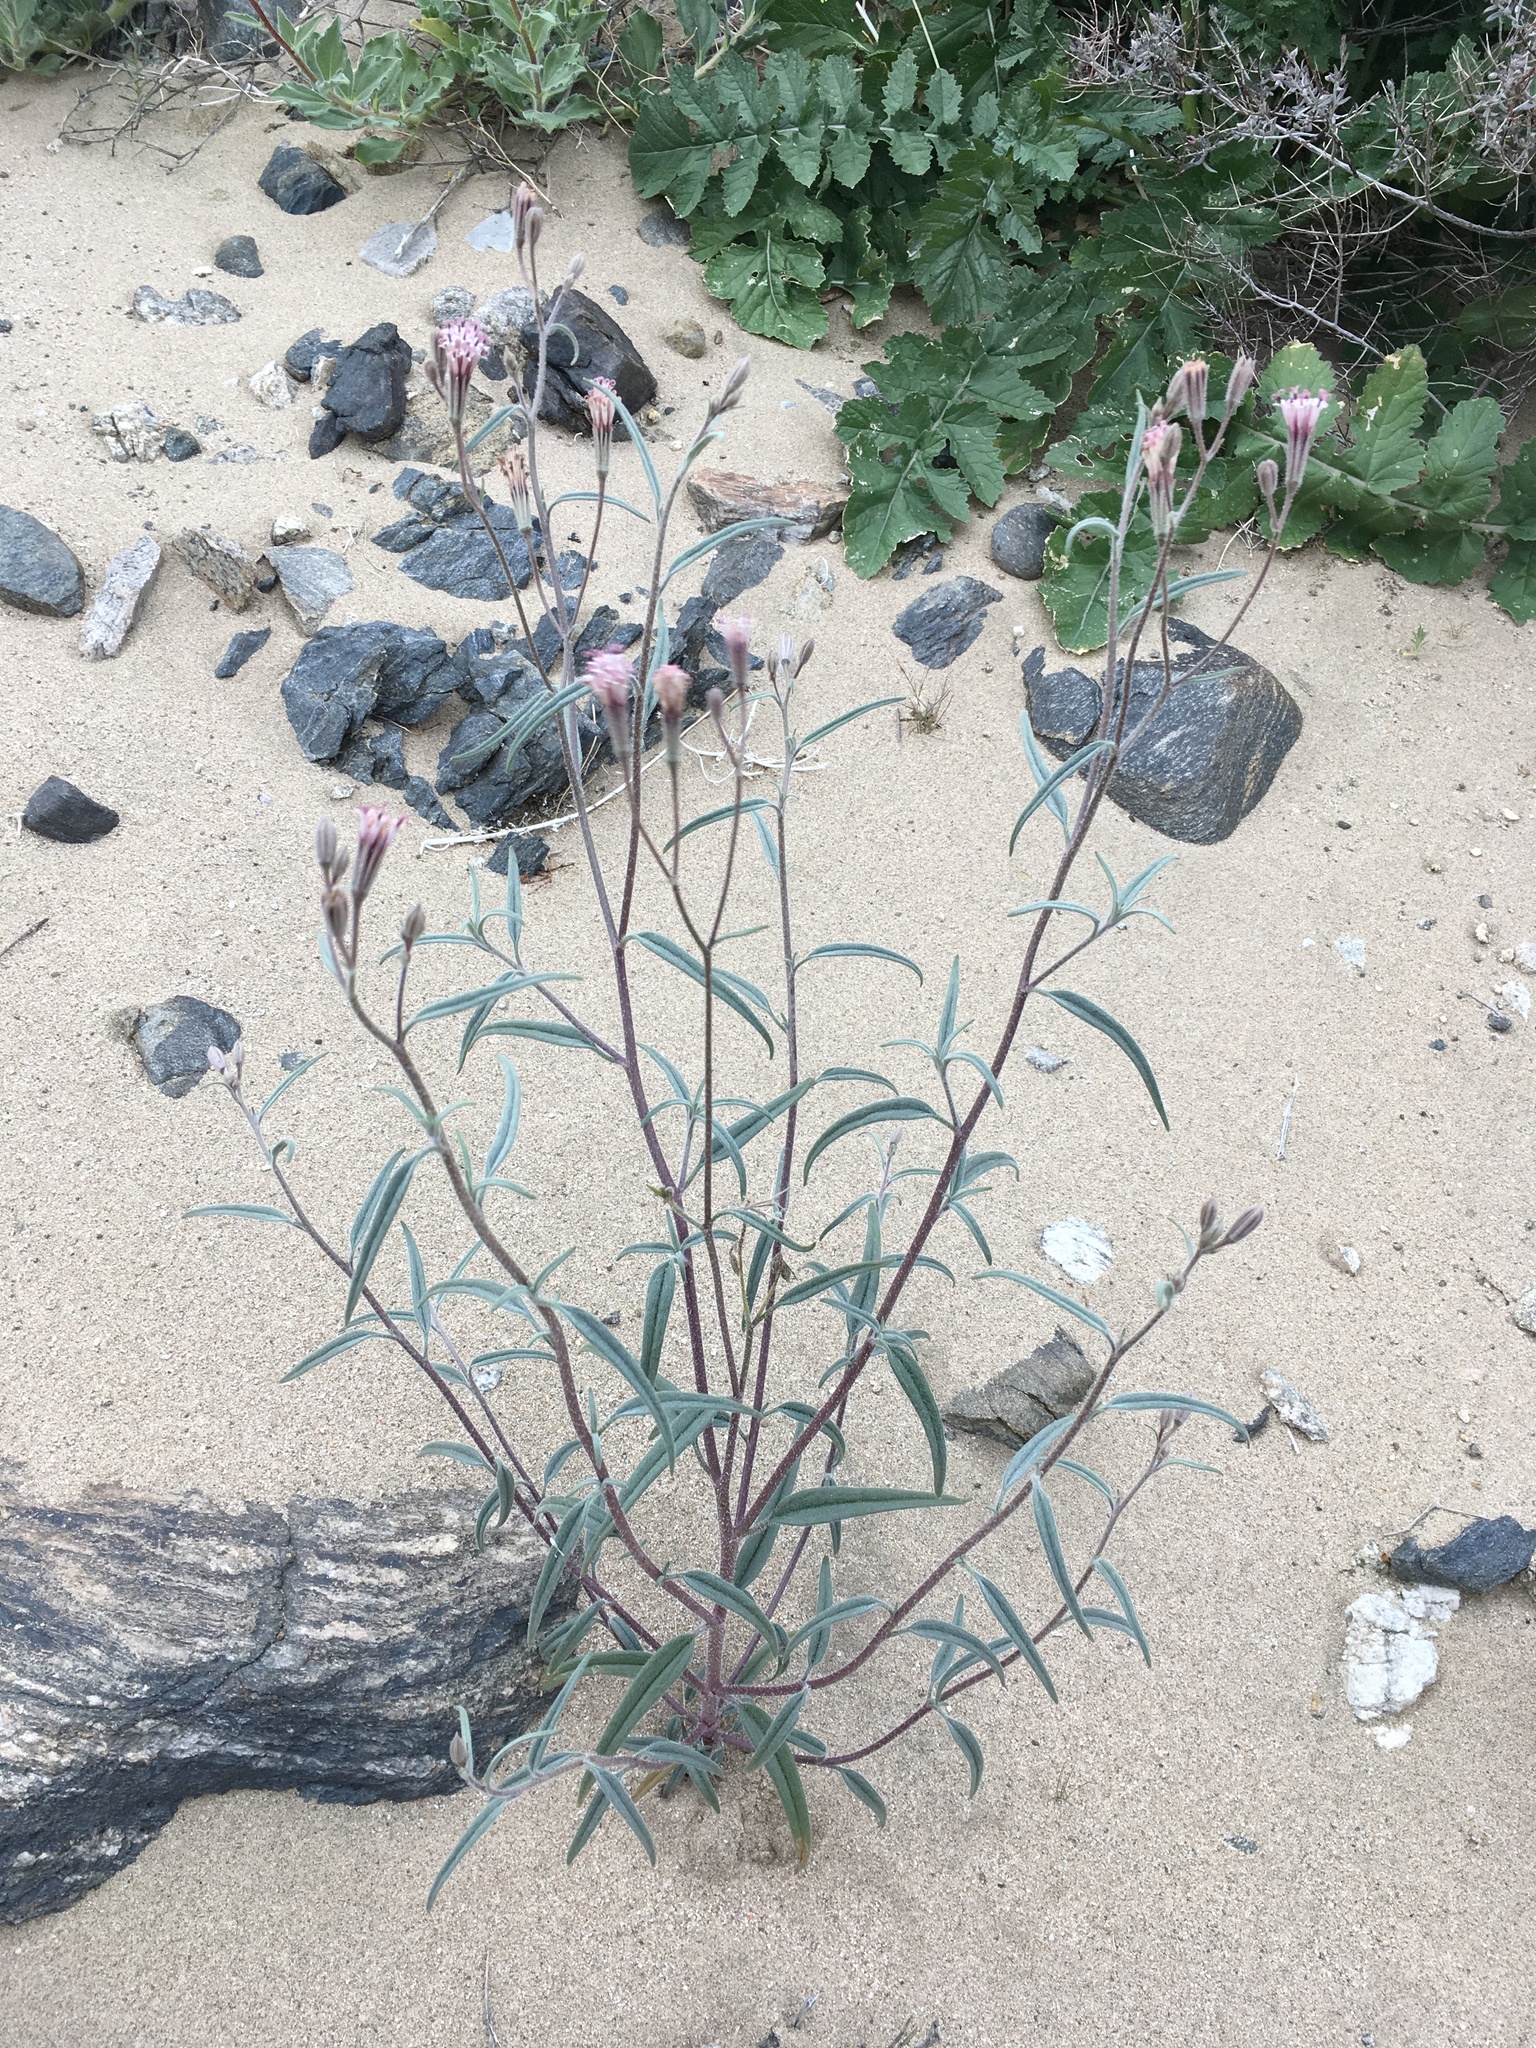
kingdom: Plantae
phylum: Tracheophyta
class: Magnoliopsida
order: Asterales
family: Asteraceae
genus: Palafoxia
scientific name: Palafoxia arida
